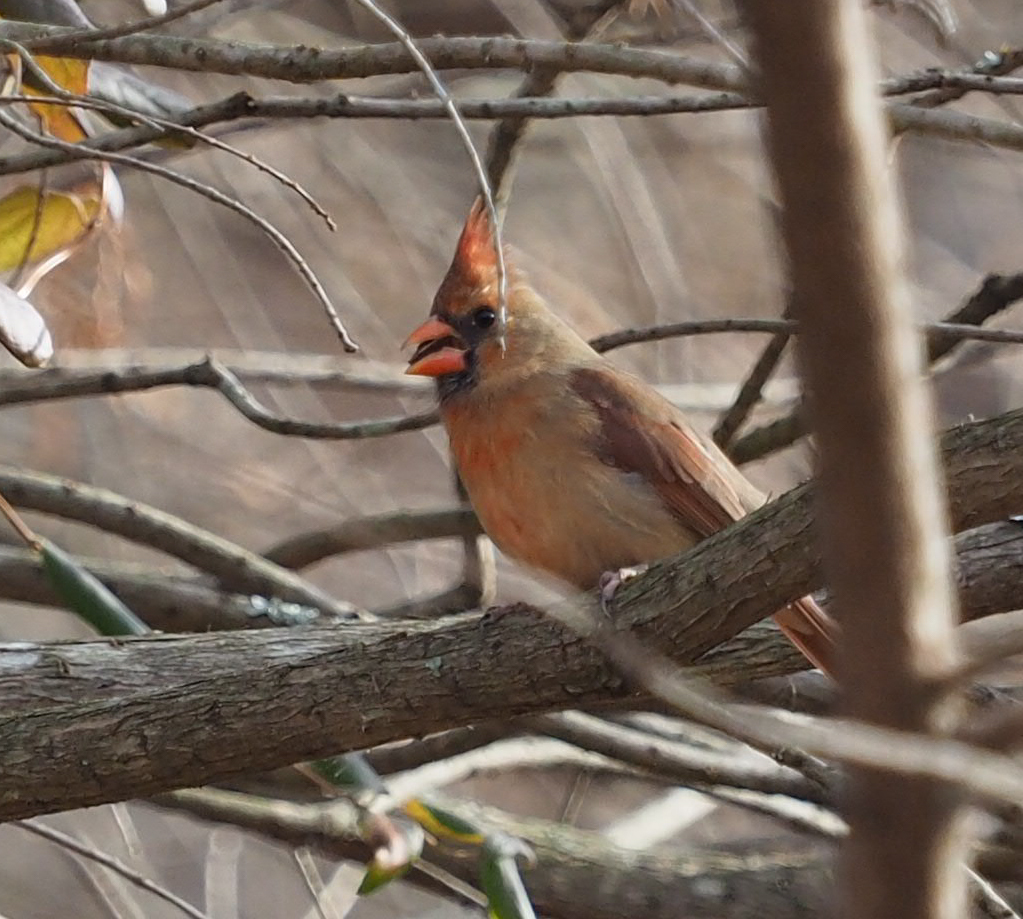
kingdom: Animalia
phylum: Chordata
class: Aves
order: Passeriformes
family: Cardinalidae
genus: Cardinalis
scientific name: Cardinalis cardinalis
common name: Northern cardinal
